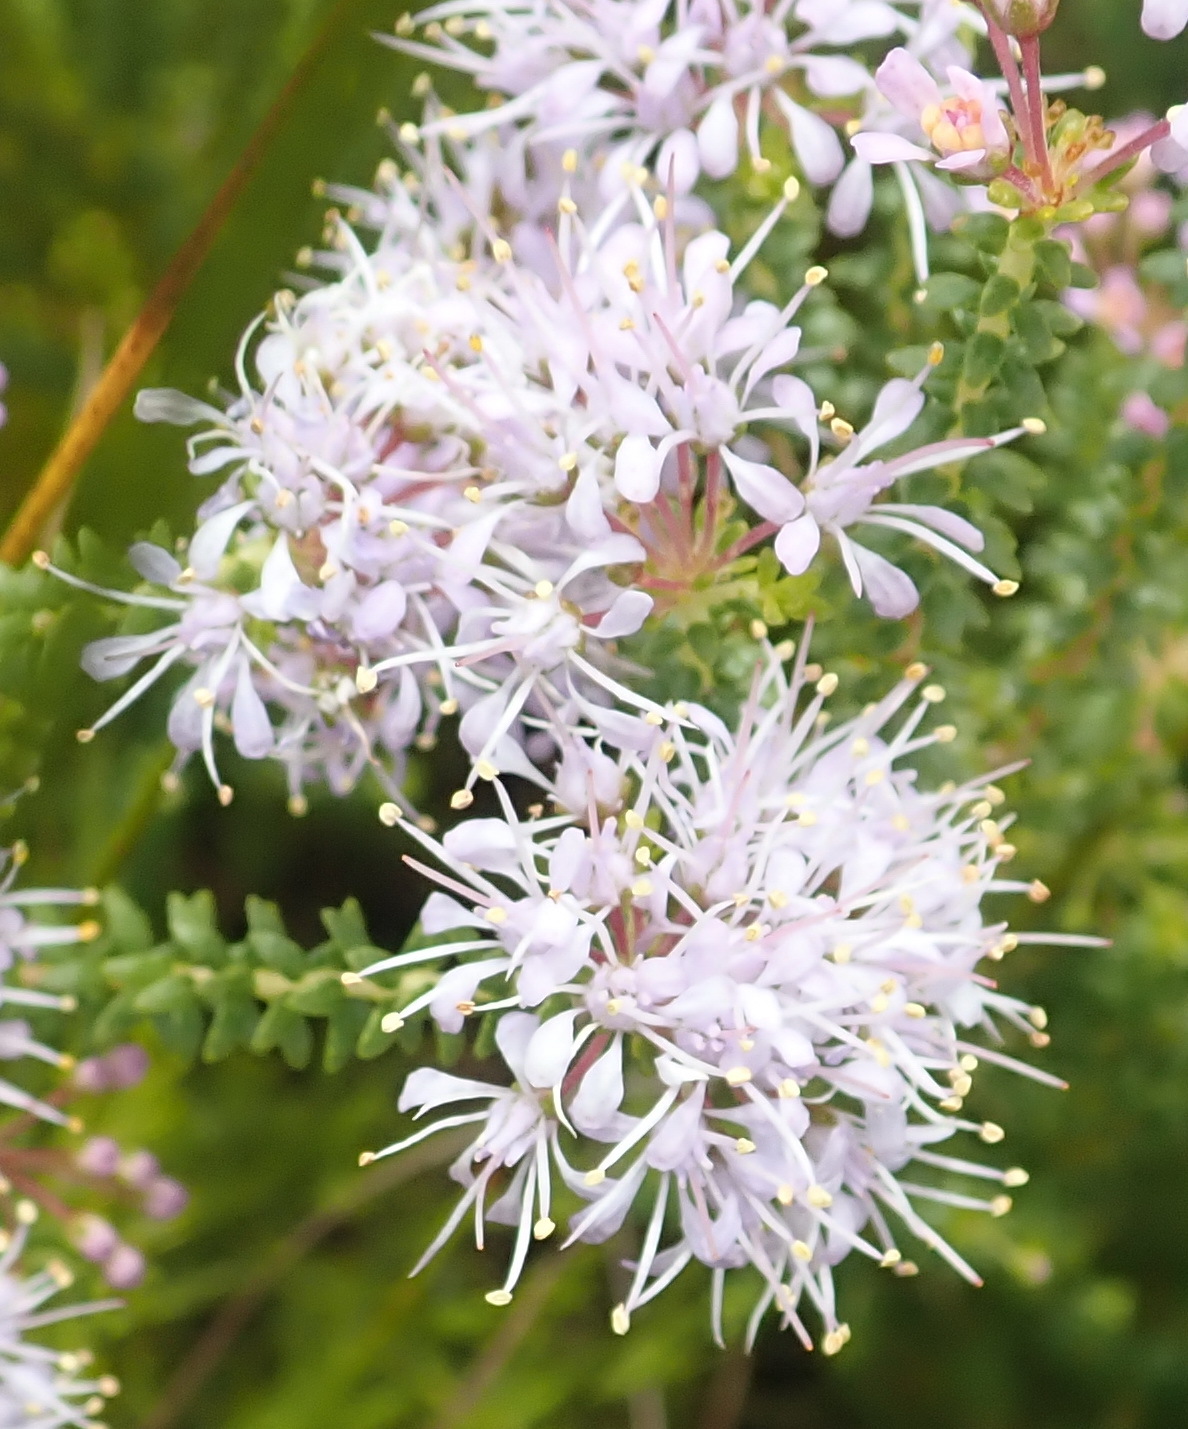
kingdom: Plantae
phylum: Tracheophyta
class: Magnoliopsida
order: Sapindales
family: Rutaceae
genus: Agathosma
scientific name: Agathosma capensis
